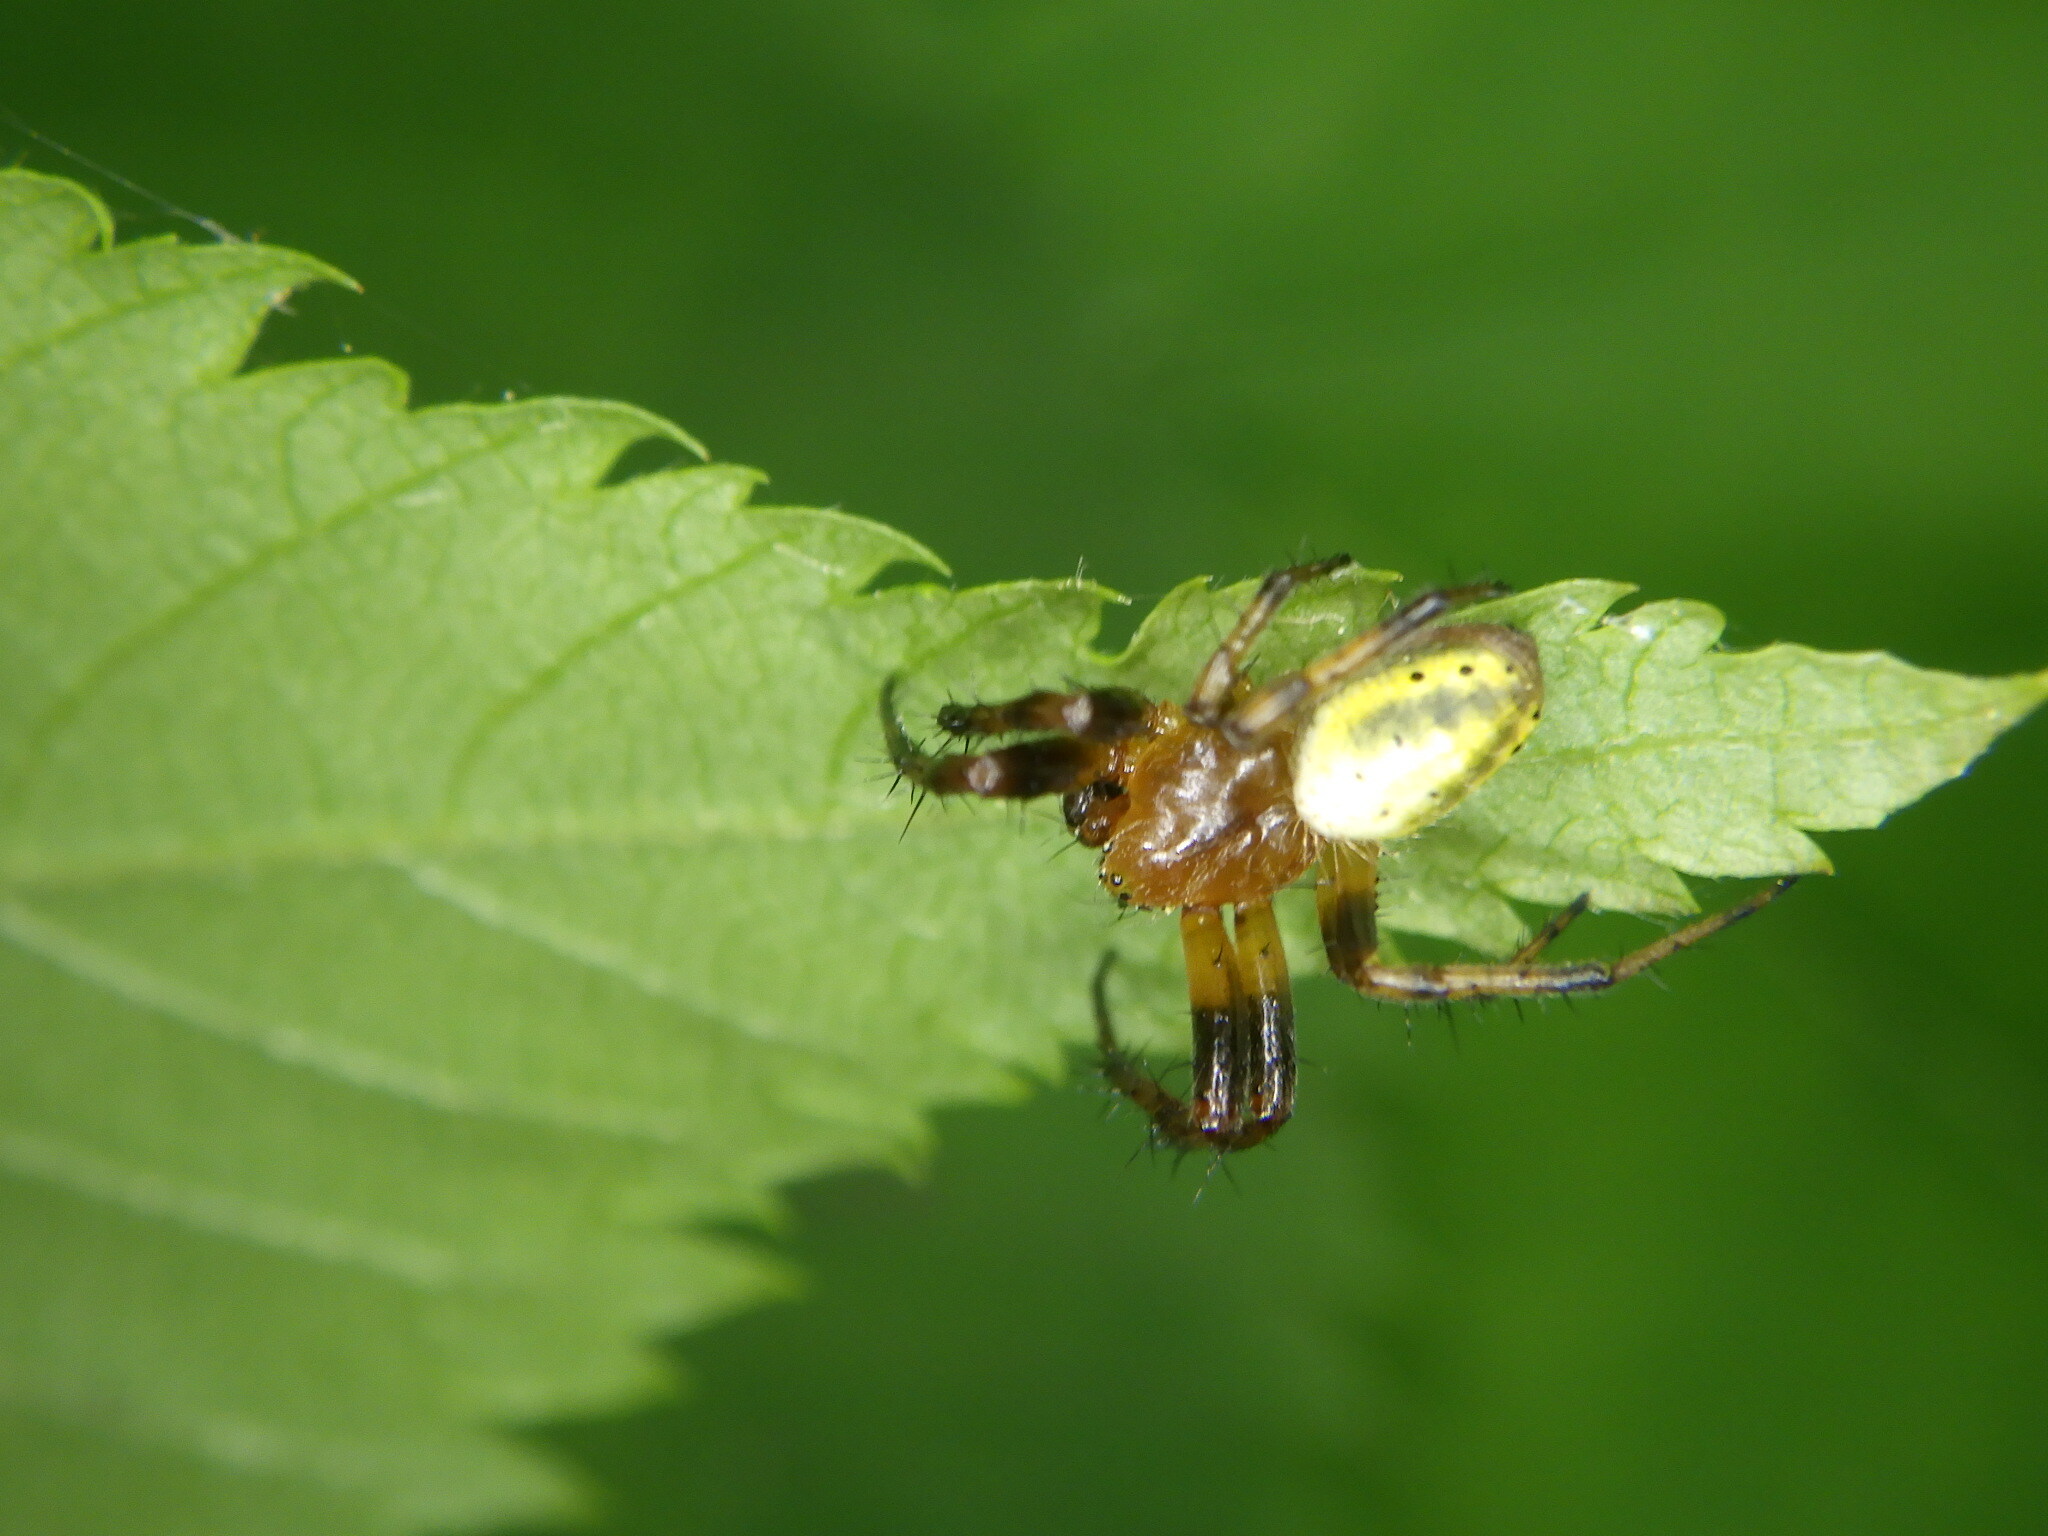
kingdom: Animalia
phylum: Arthropoda
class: Arachnida
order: Araneae
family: Araneidae
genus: Araniella
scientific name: Araniella displicata
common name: Sixspotted orb weaver
